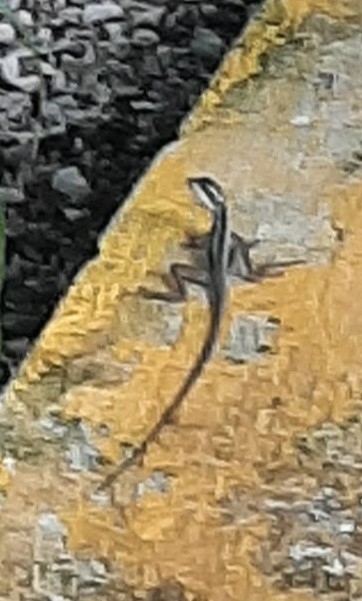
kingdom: Animalia
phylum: Chordata
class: Squamata
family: Corytophanidae
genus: Basiliscus
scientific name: Basiliscus vittatus
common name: Brown basilisk
